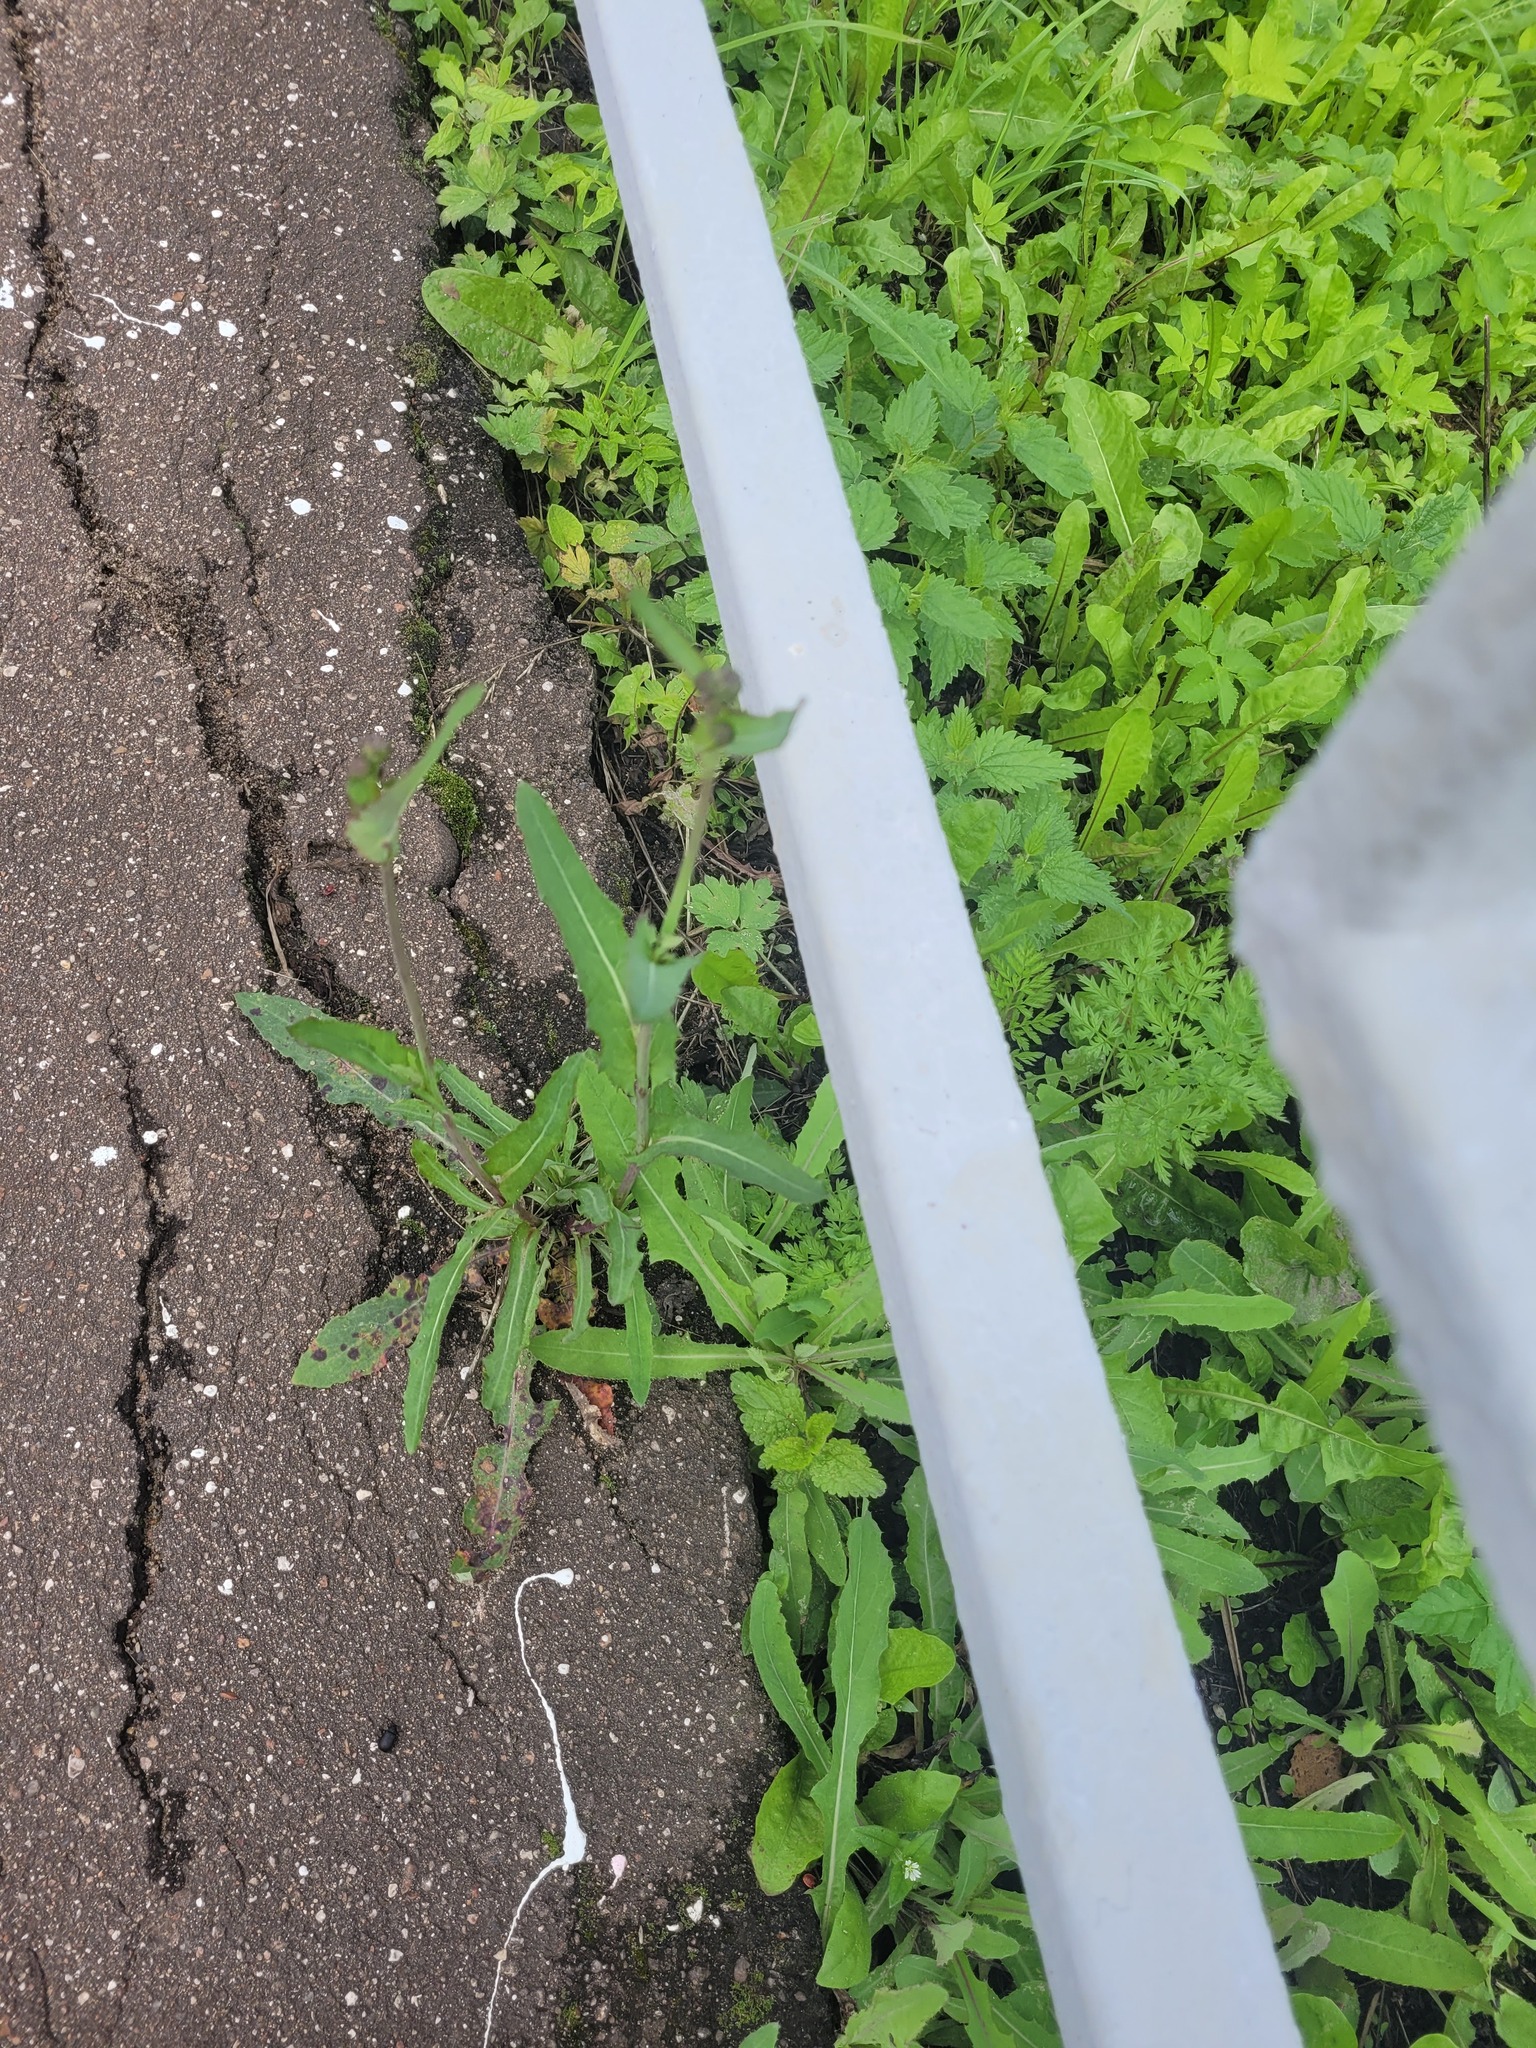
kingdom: Plantae
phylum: Tracheophyta
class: Magnoliopsida
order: Asterales
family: Asteraceae
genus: Sonchus
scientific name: Sonchus arvensis
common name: Perennial sow-thistle
